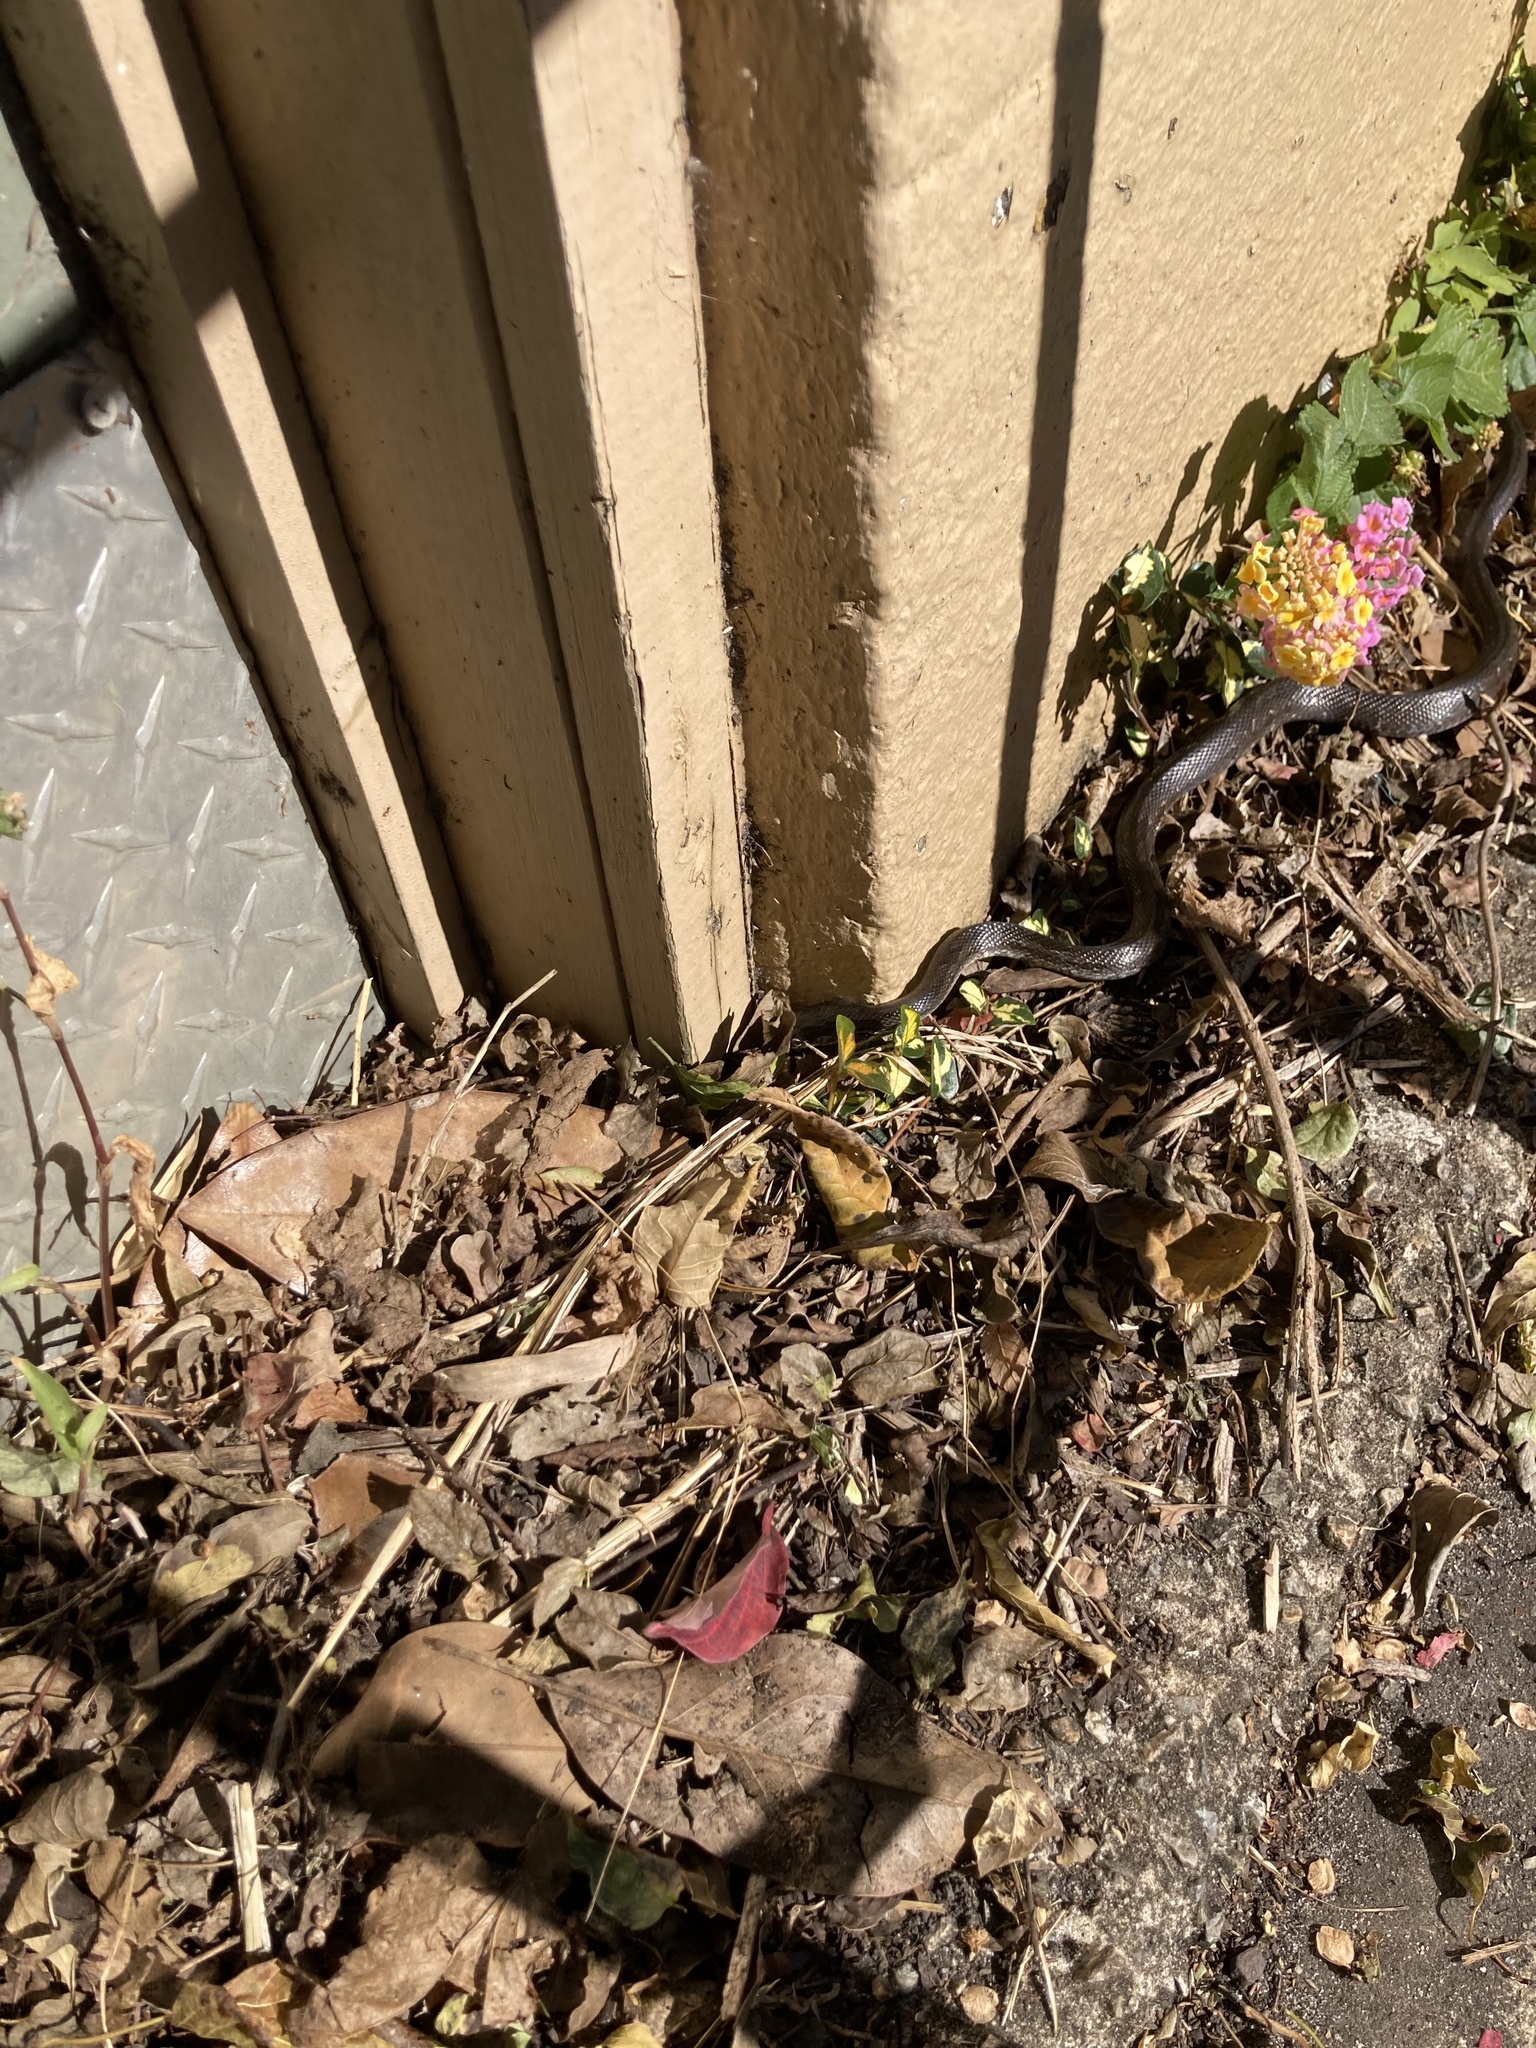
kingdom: Animalia
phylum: Chordata
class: Squamata
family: Colubridae
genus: Pantherophis
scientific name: Pantherophis alleghaniensis
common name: Eastern rat snake
